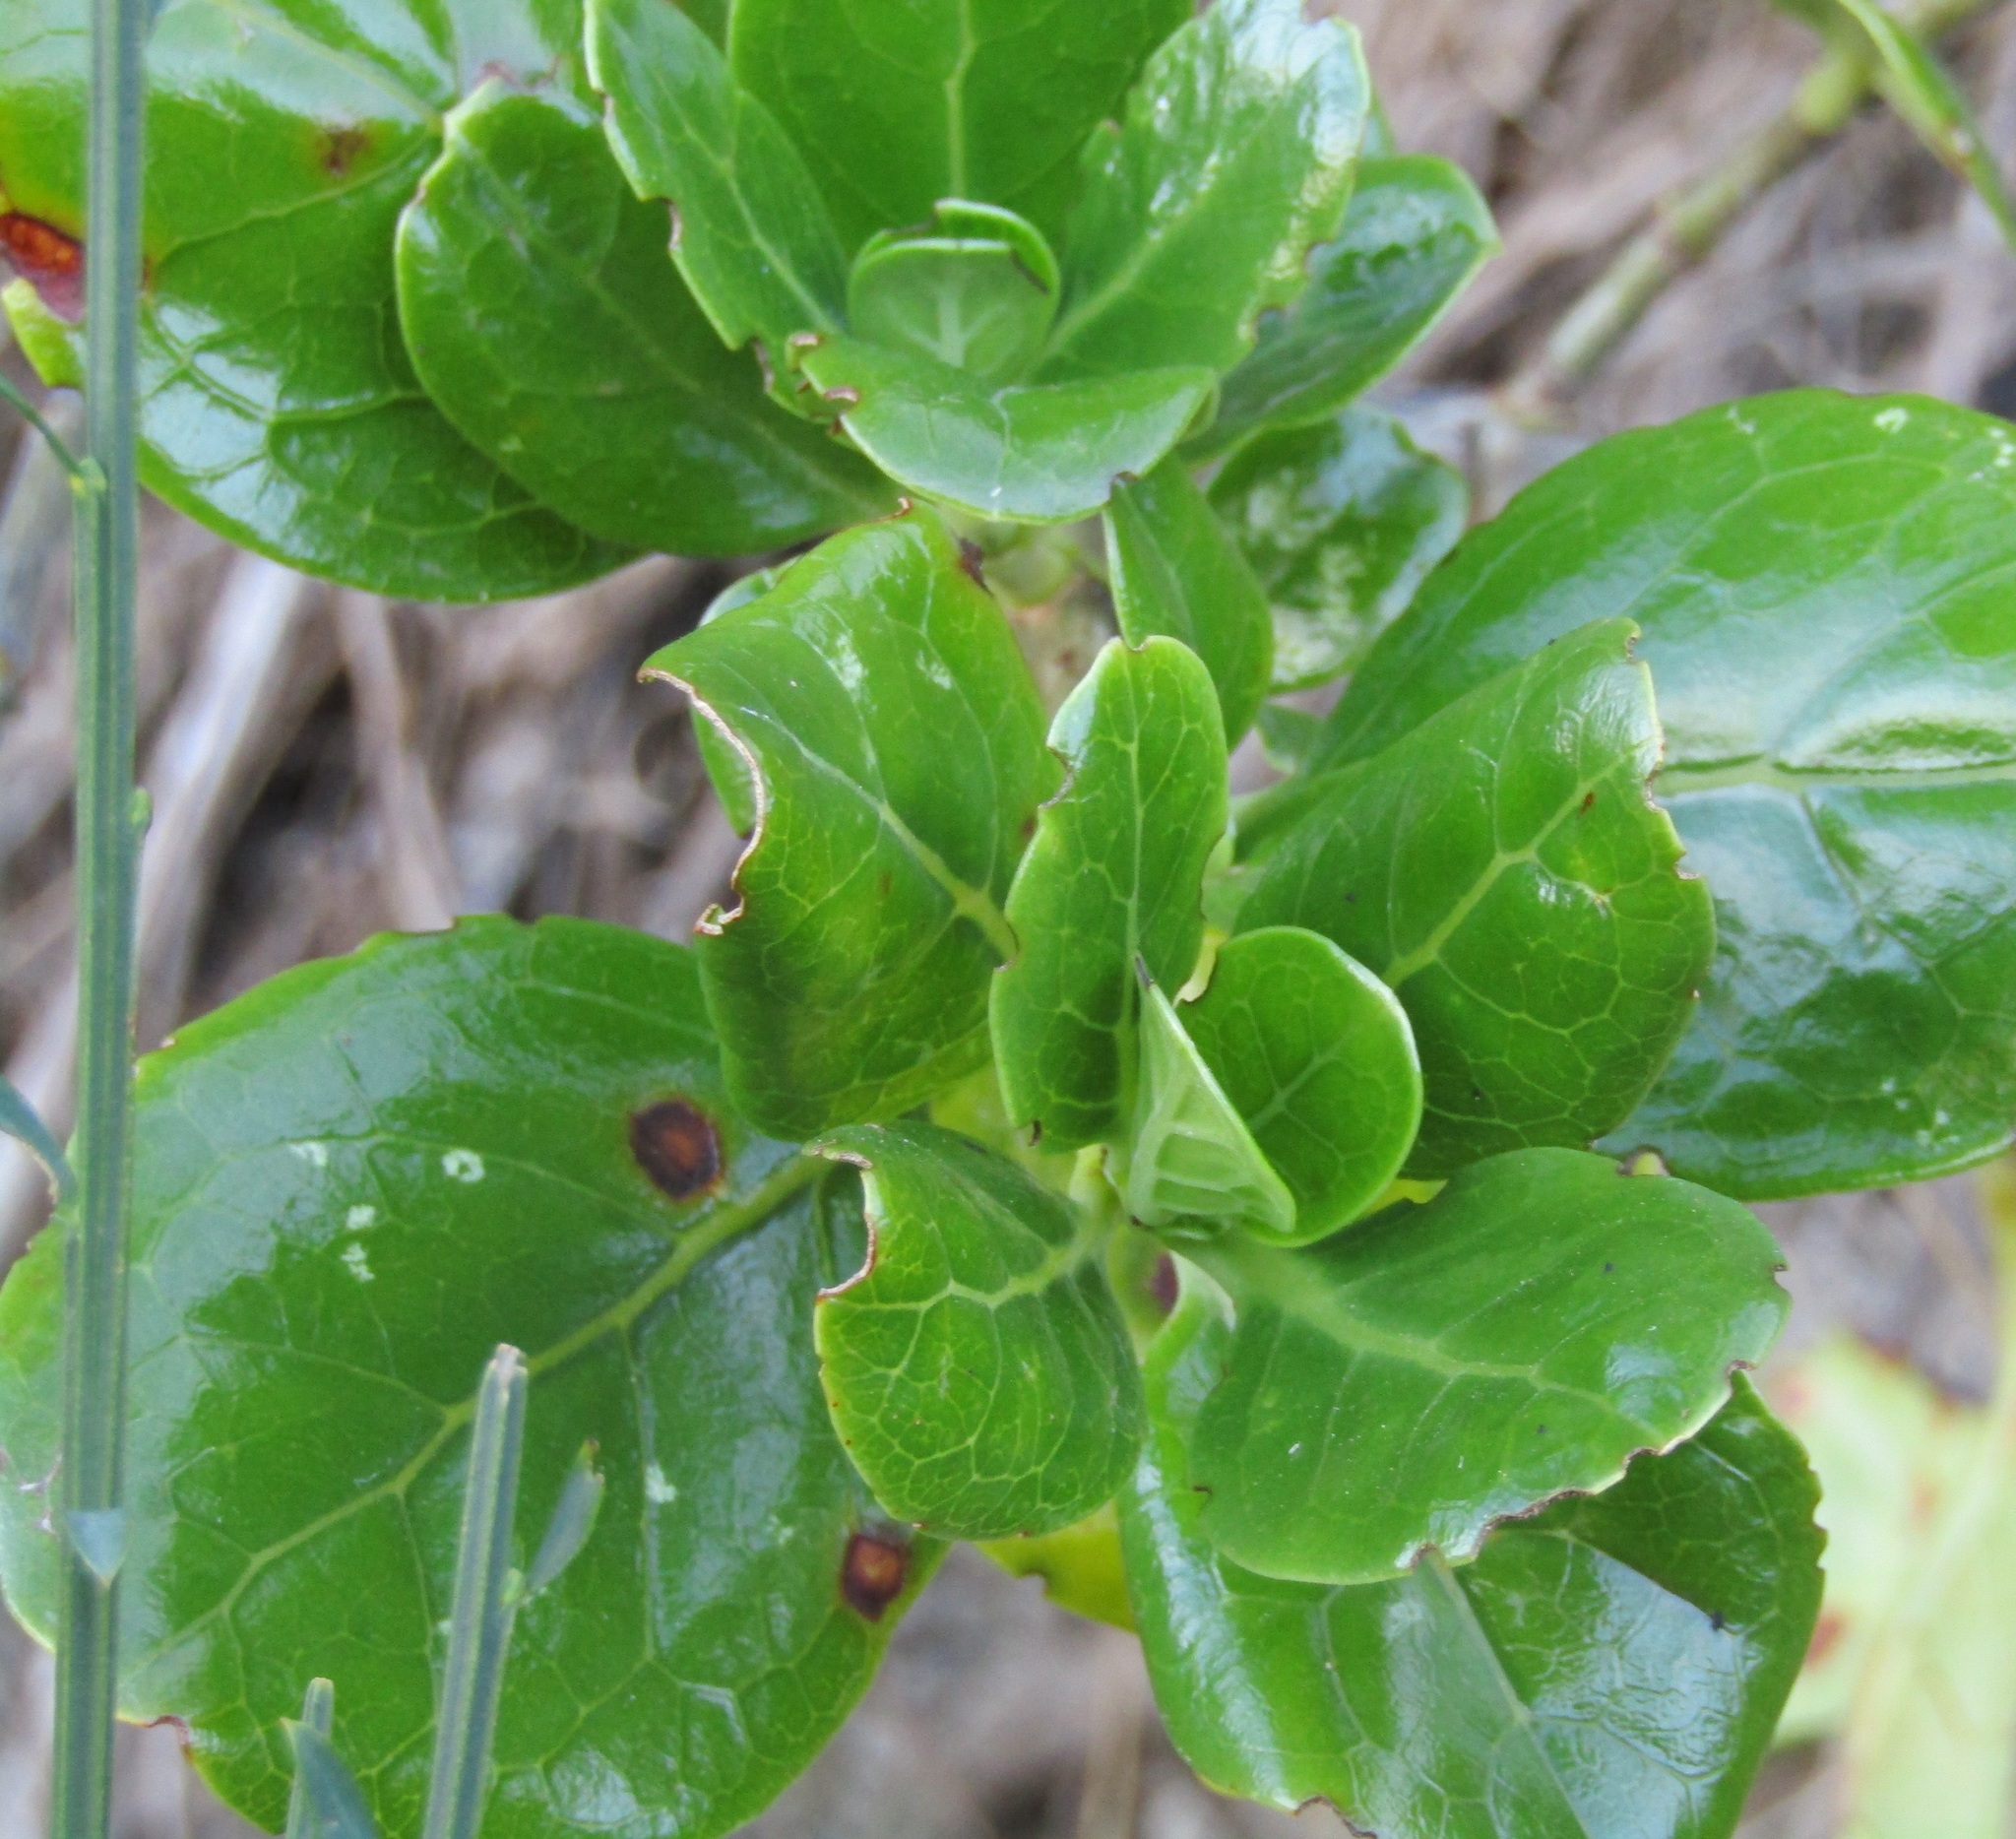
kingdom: Plantae
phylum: Tracheophyta
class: Magnoliopsida
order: Gentianales
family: Rubiaceae
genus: Coprosma
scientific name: Coprosma repens
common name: Tree bedstraw
